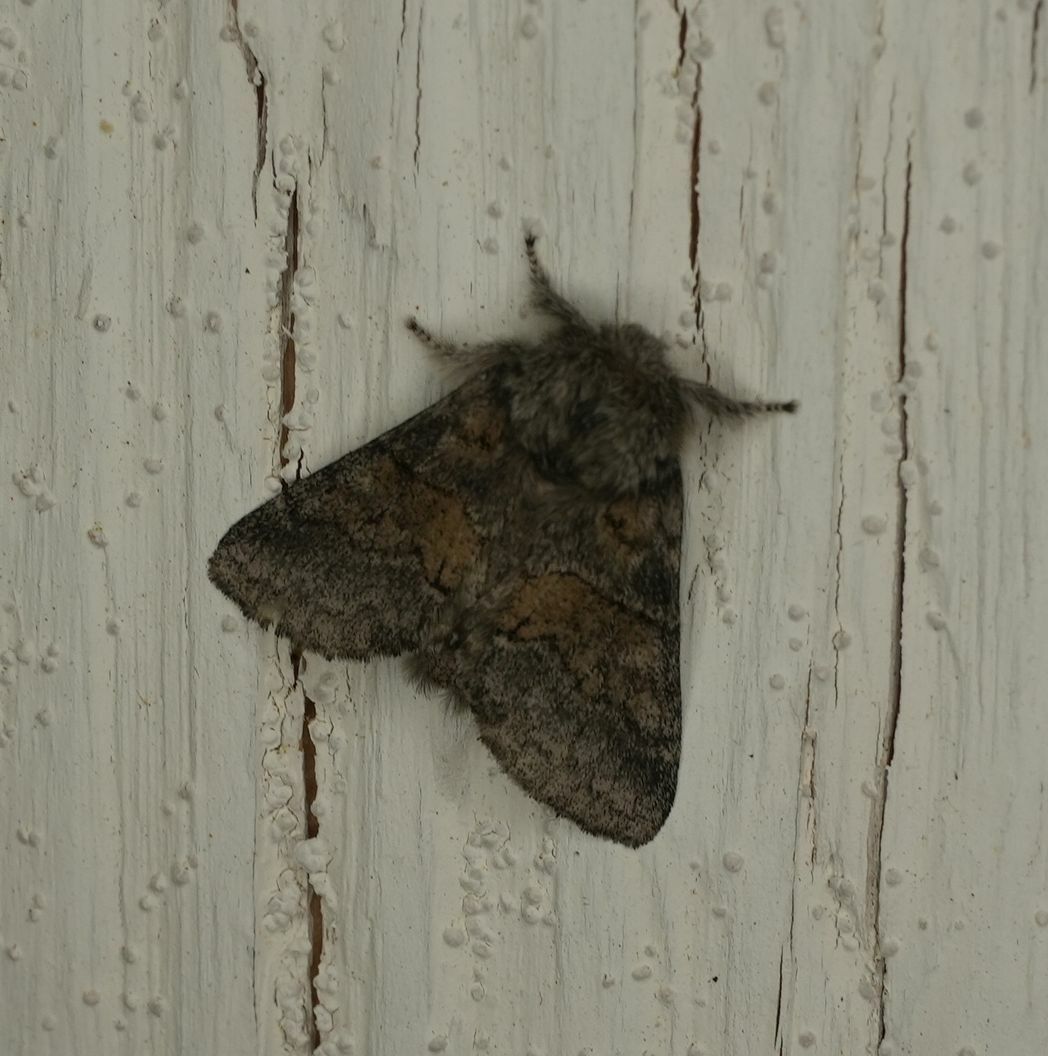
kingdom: Animalia
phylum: Arthropoda
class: Insecta
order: Lepidoptera
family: Notodontidae
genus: Gluphisia
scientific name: Gluphisia septentrionis
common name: Common gluphisia
